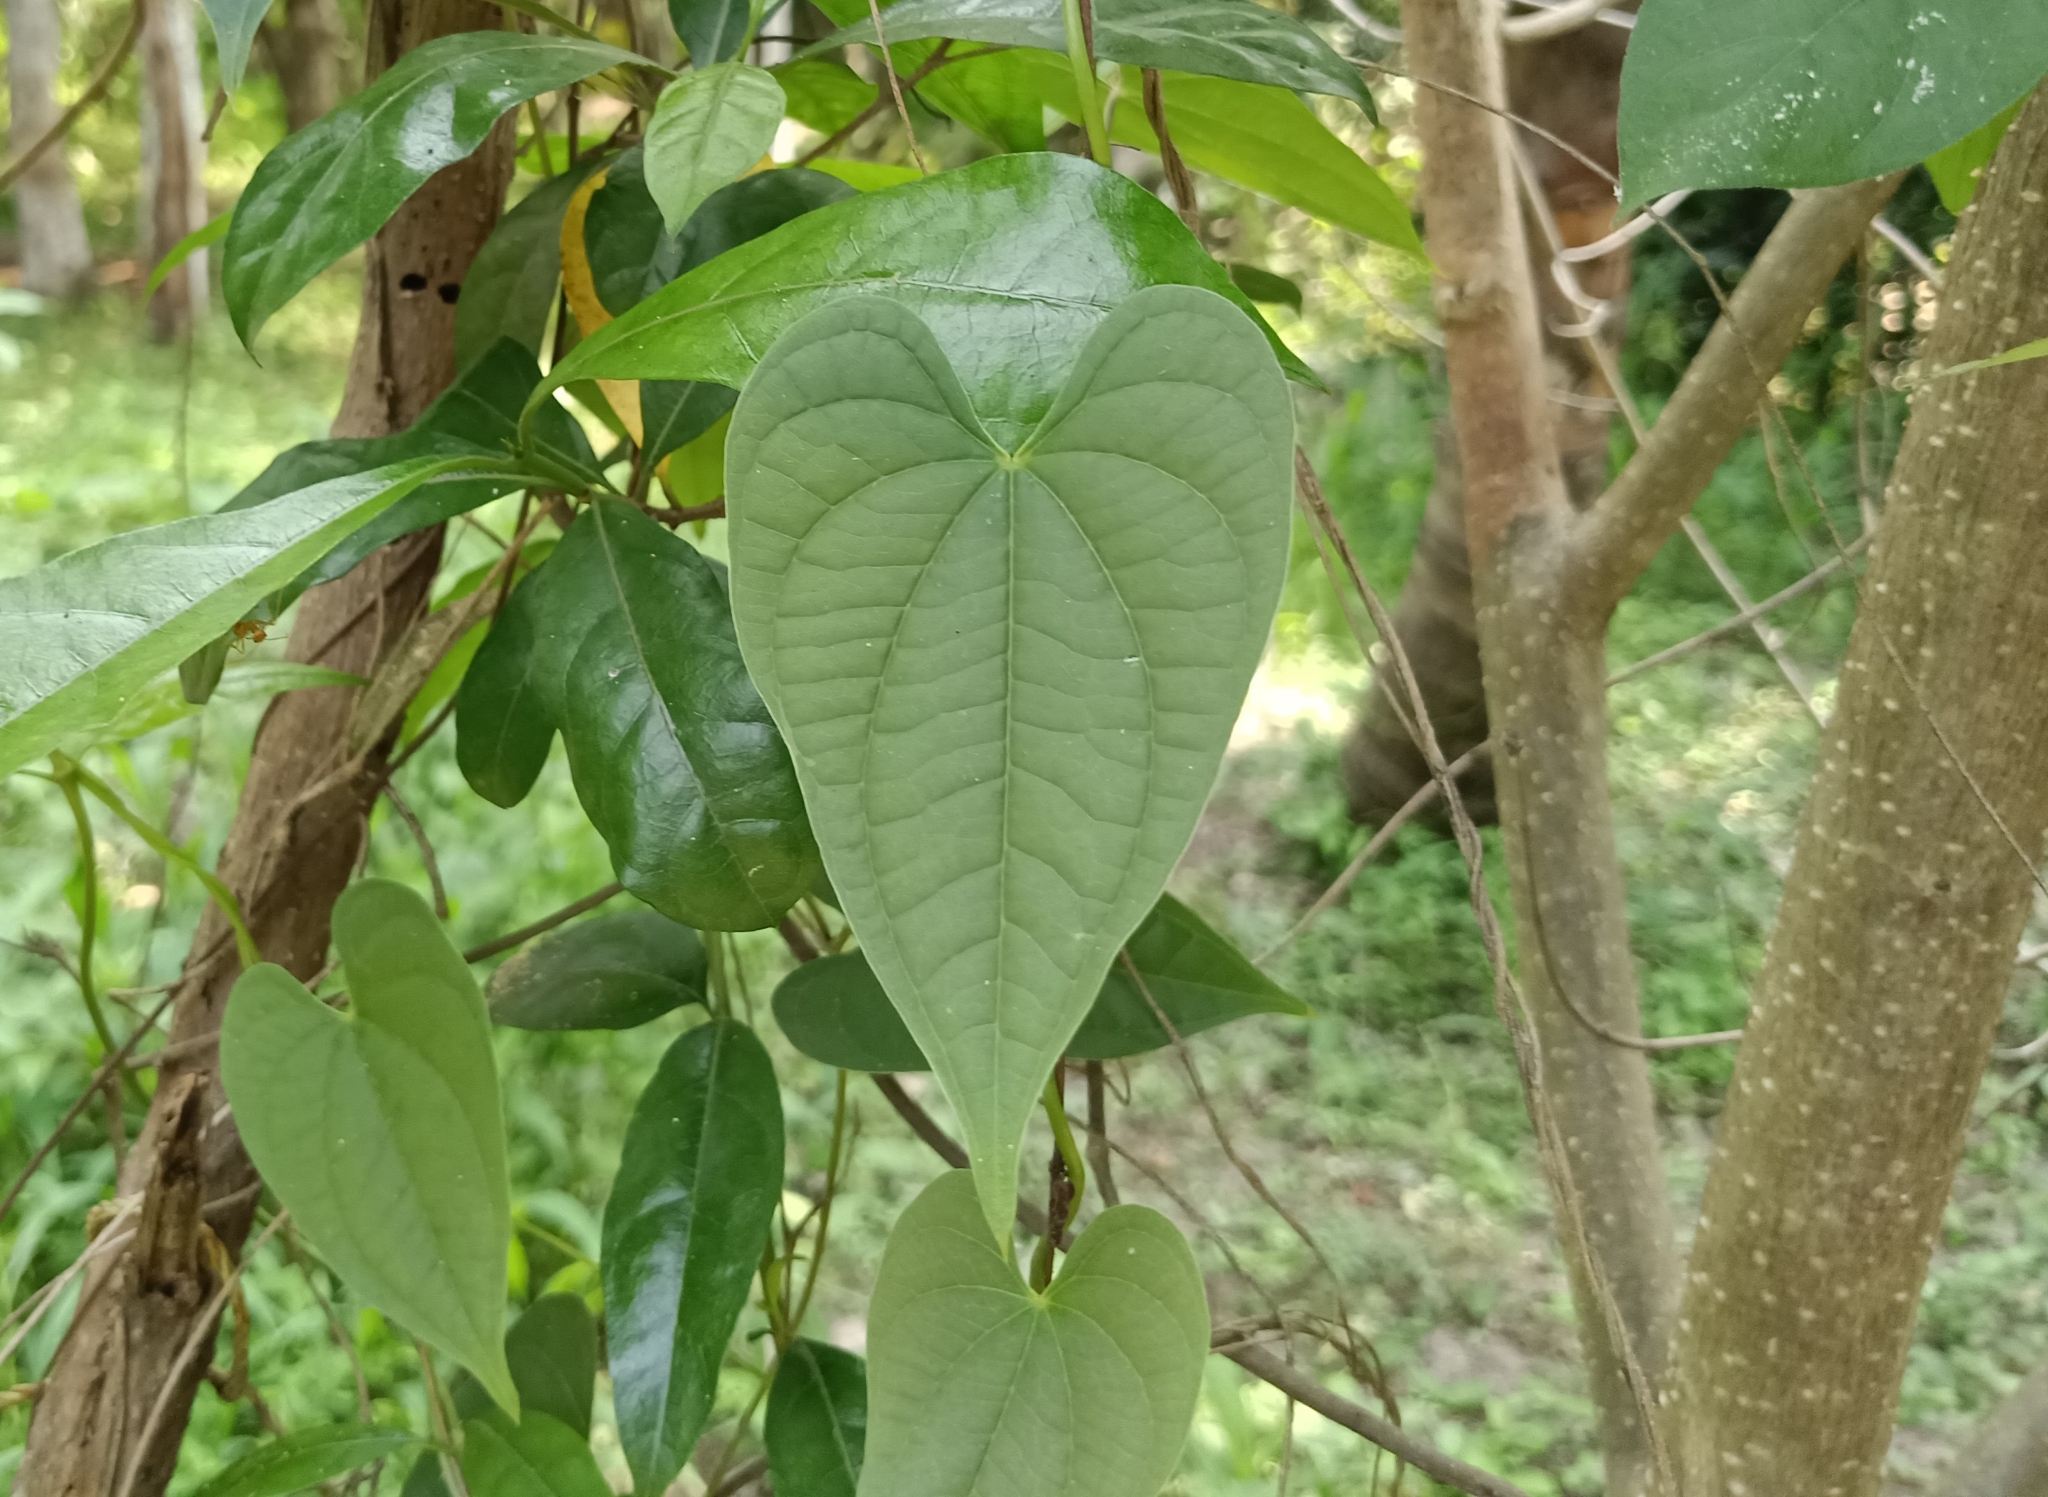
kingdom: Plantae
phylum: Tracheophyta
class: Liliopsida
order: Dioscoreales
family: Dioscoreaceae
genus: Dioscorea
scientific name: Dioscorea bulbifera
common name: Air yam
